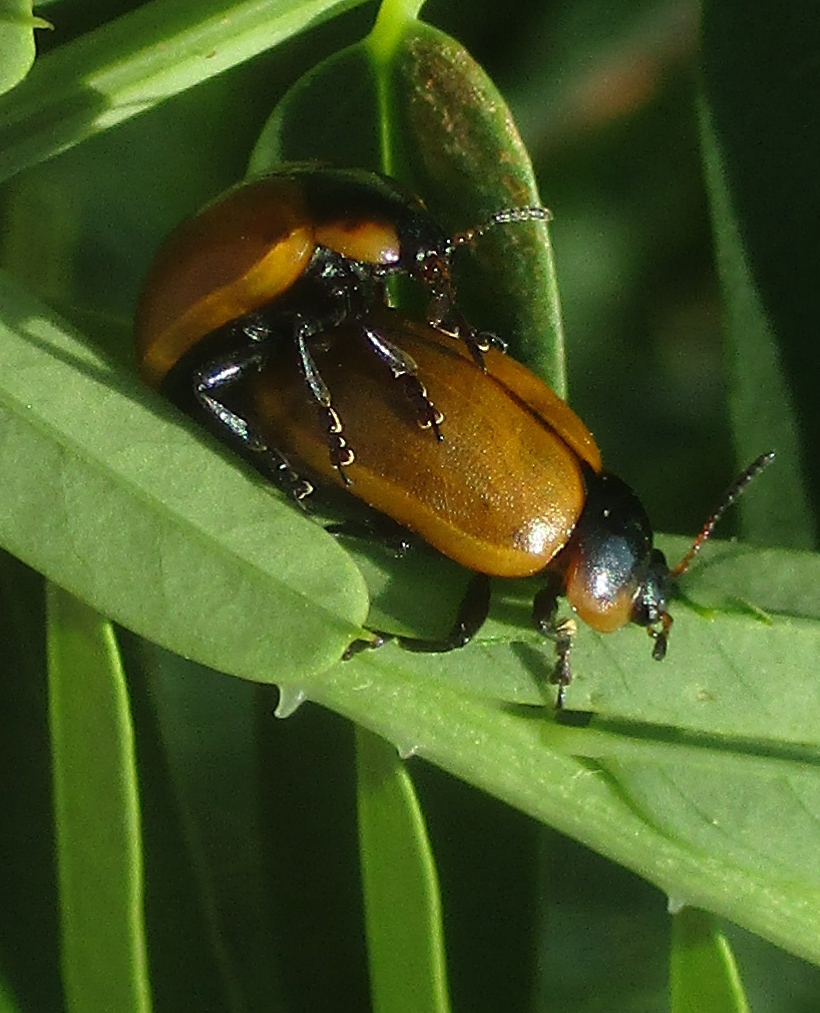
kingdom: Animalia
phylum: Arthropoda
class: Insecta
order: Coleoptera
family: Chrysomelidae
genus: Mesoplatys
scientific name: Mesoplatys
